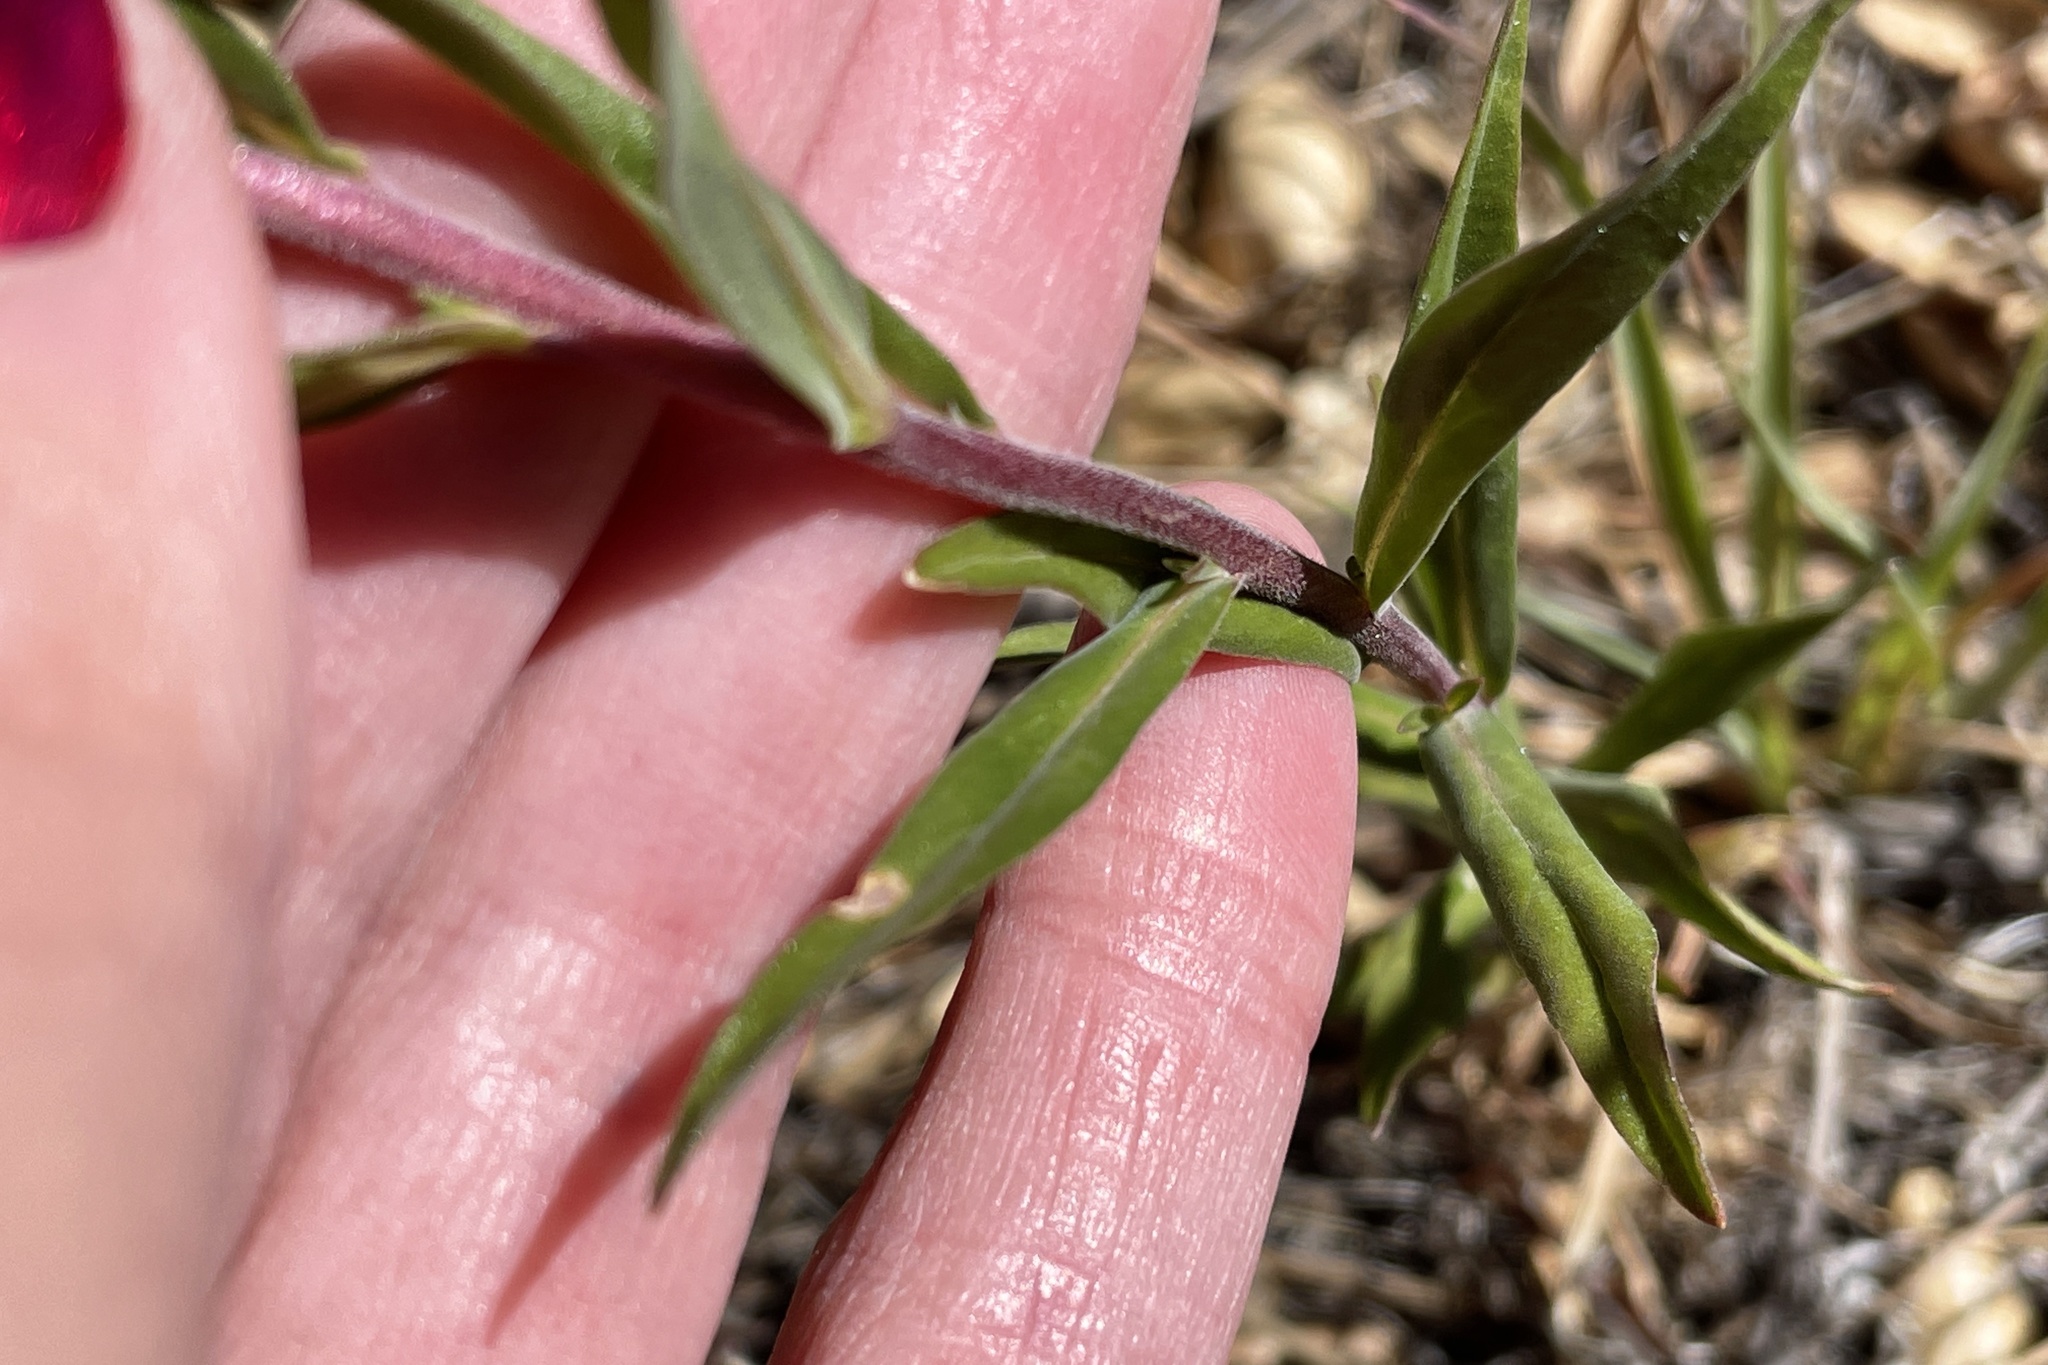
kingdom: Plantae
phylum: Tracheophyta
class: Magnoliopsida
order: Ericales
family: Polemoniaceae
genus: Collomia
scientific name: Collomia grandiflora
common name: California strawflower
